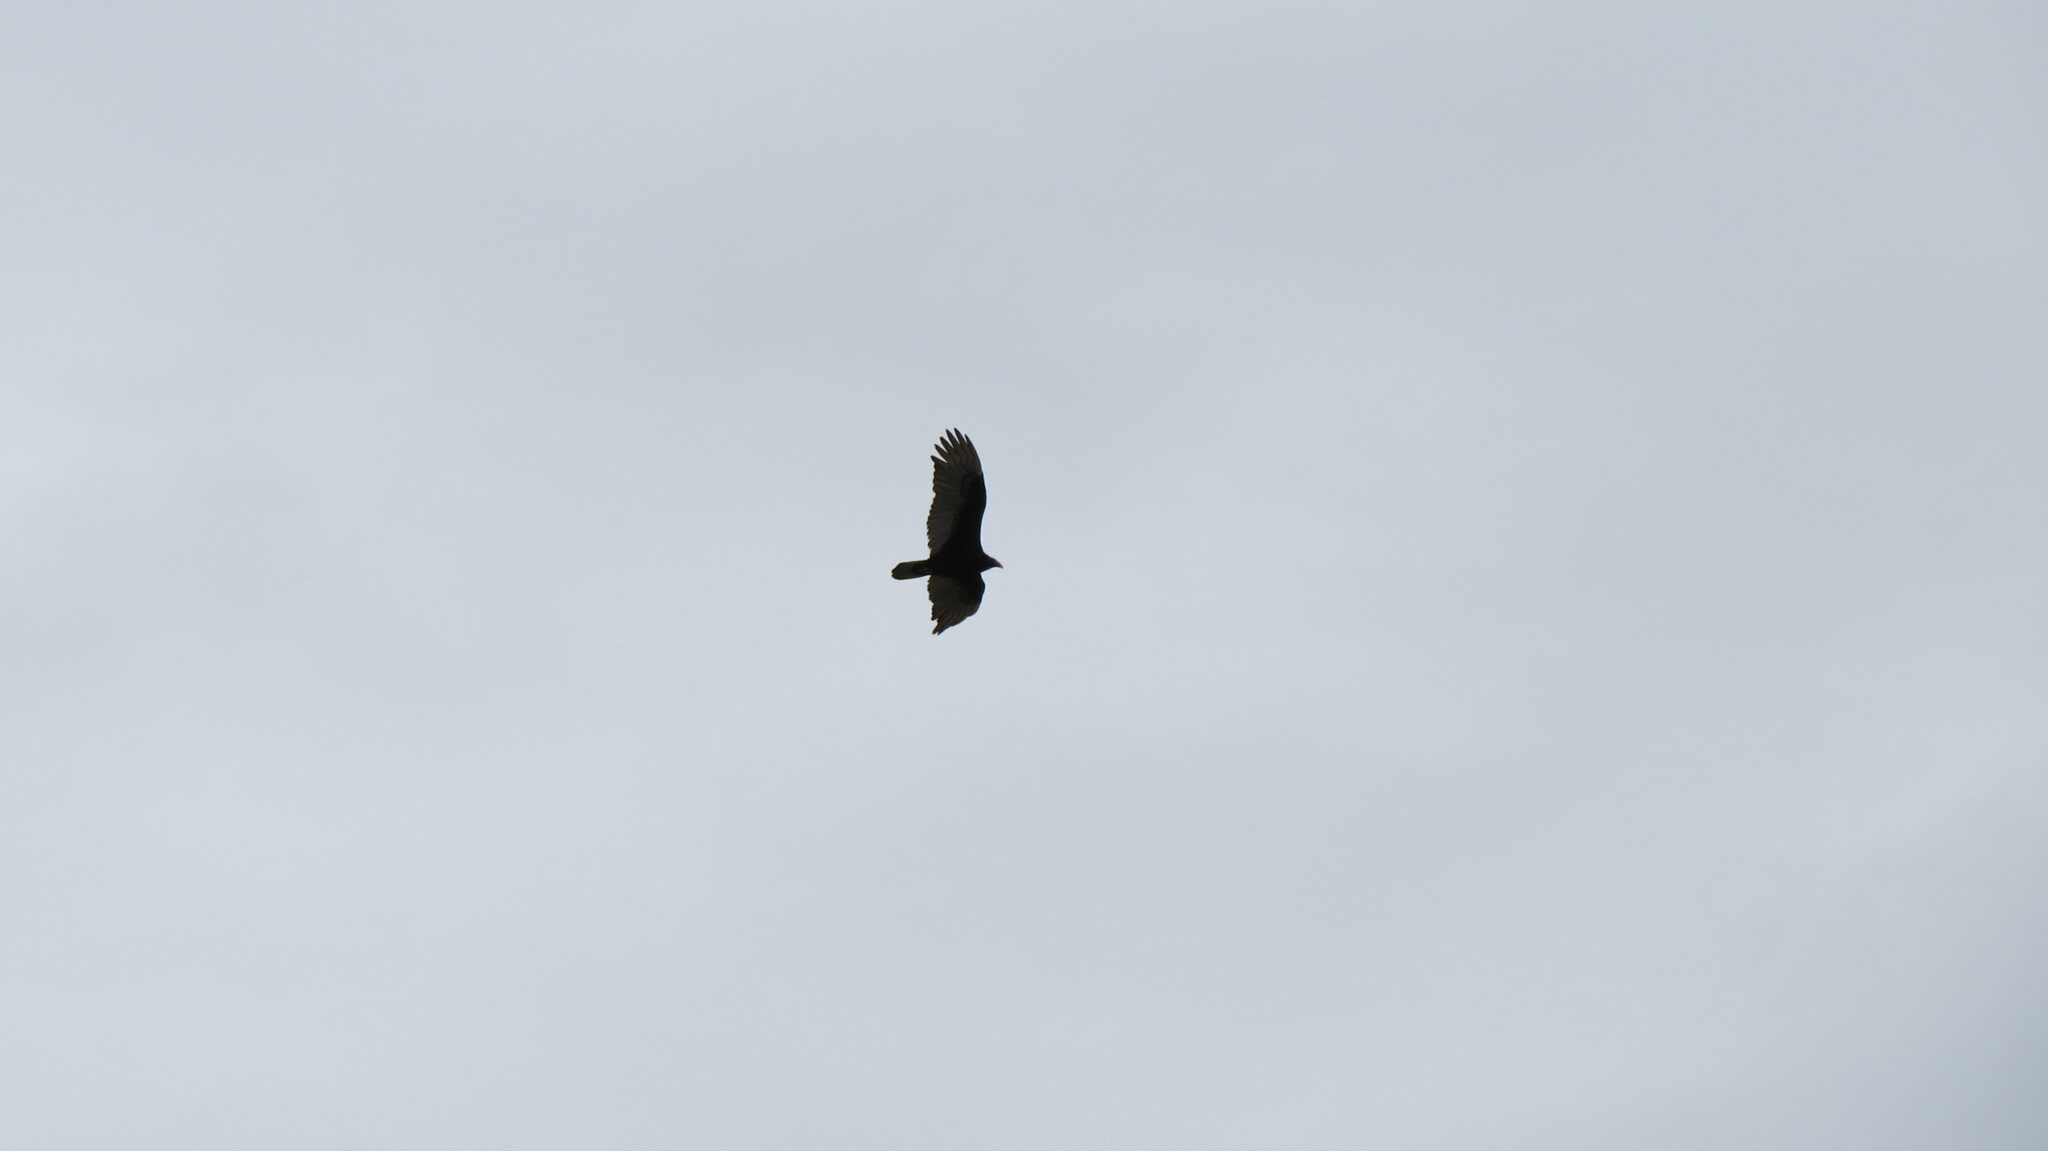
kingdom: Animalia
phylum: Chordata
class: Aves
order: Accipitriformes
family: Cathartidae
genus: Cathartes
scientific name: Cathartes aura
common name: Turkey vulture
